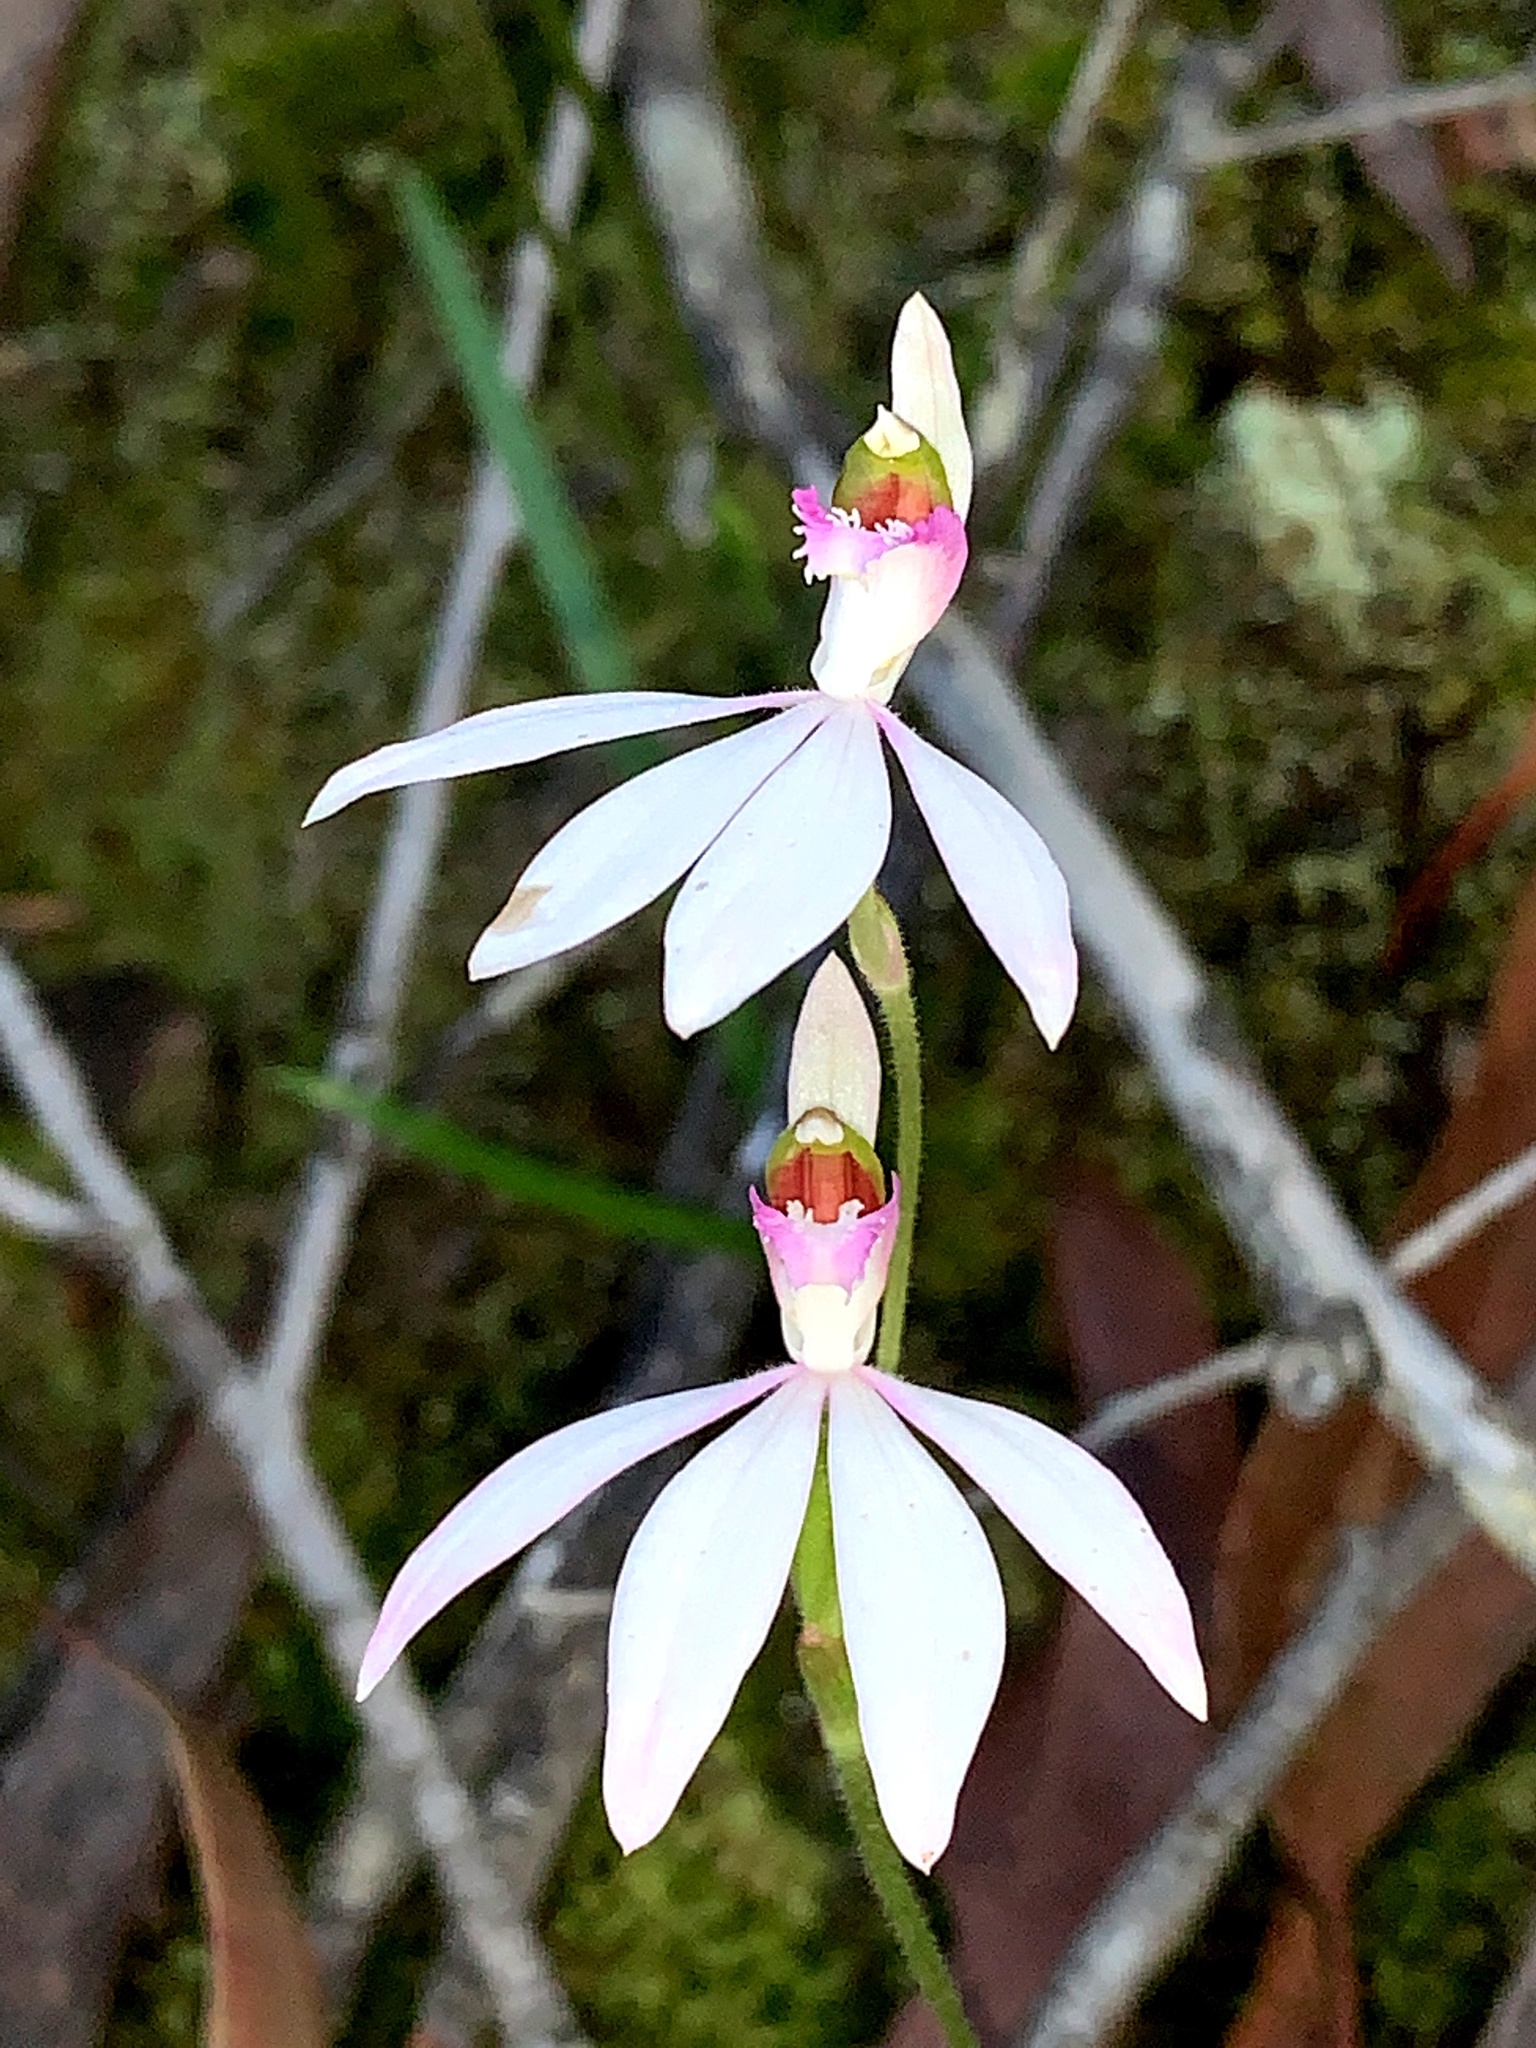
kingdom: Plantae
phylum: Tracheophyta
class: Liliopsida
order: Asparagales
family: Orchidaceae
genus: Caladenia
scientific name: Caladenia picta
